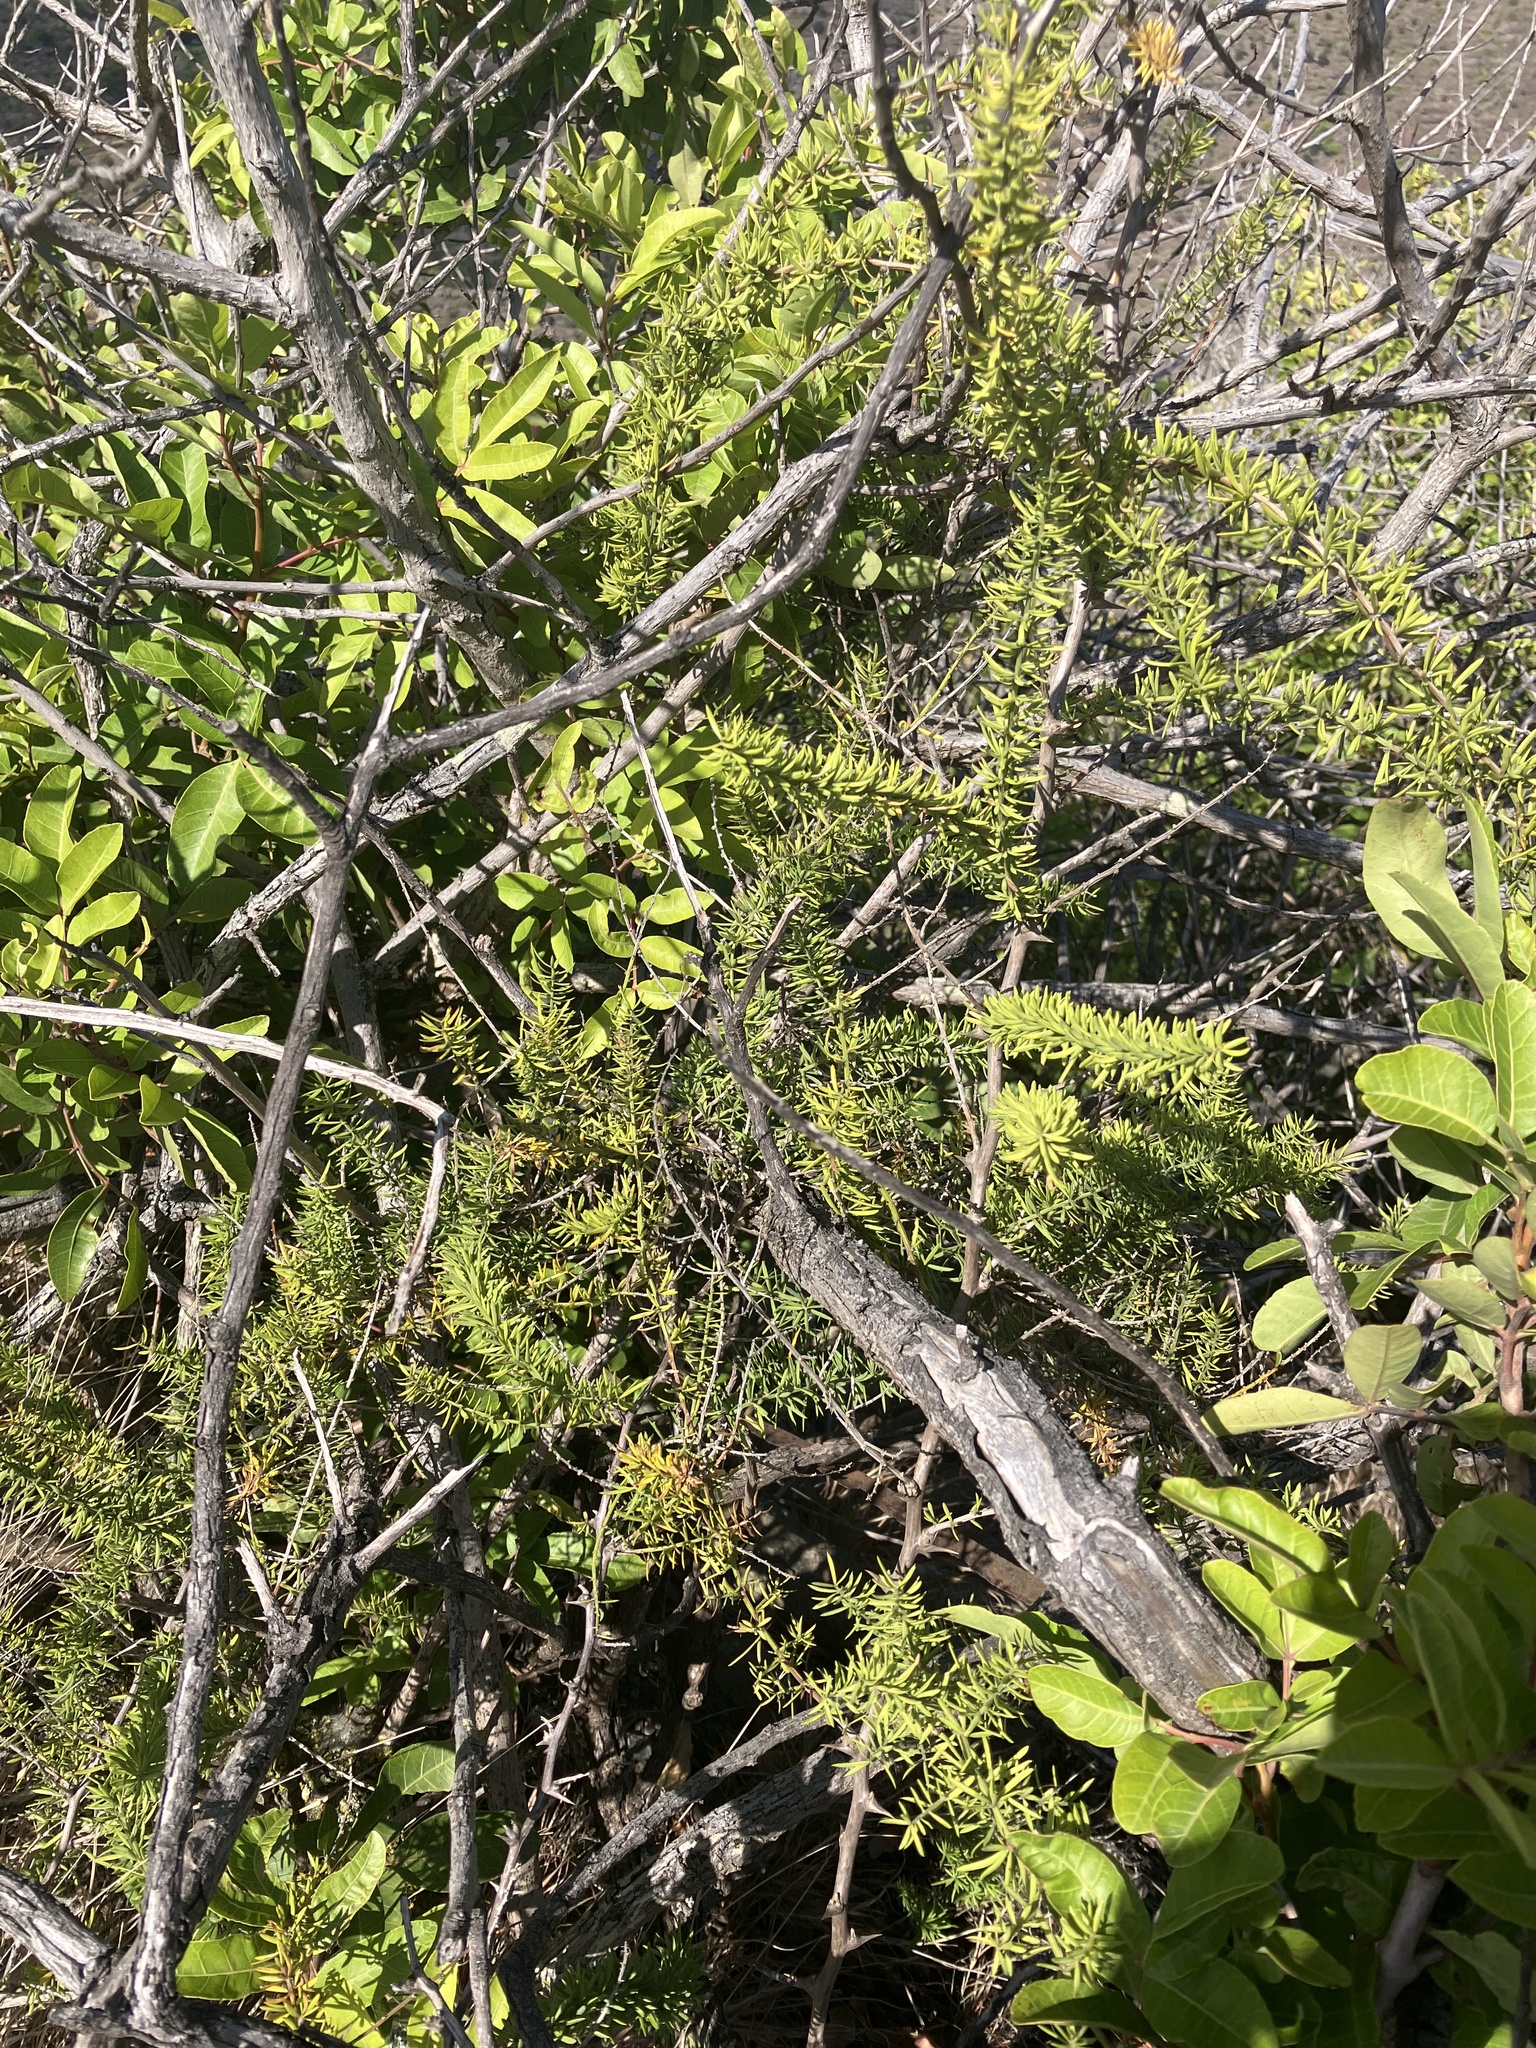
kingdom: Plantae
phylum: Tracheophyta
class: Liliopsida
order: Asparagales
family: Asparagaceae
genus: Asparagus
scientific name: Asparagus densiflorus
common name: Asparagus fern
